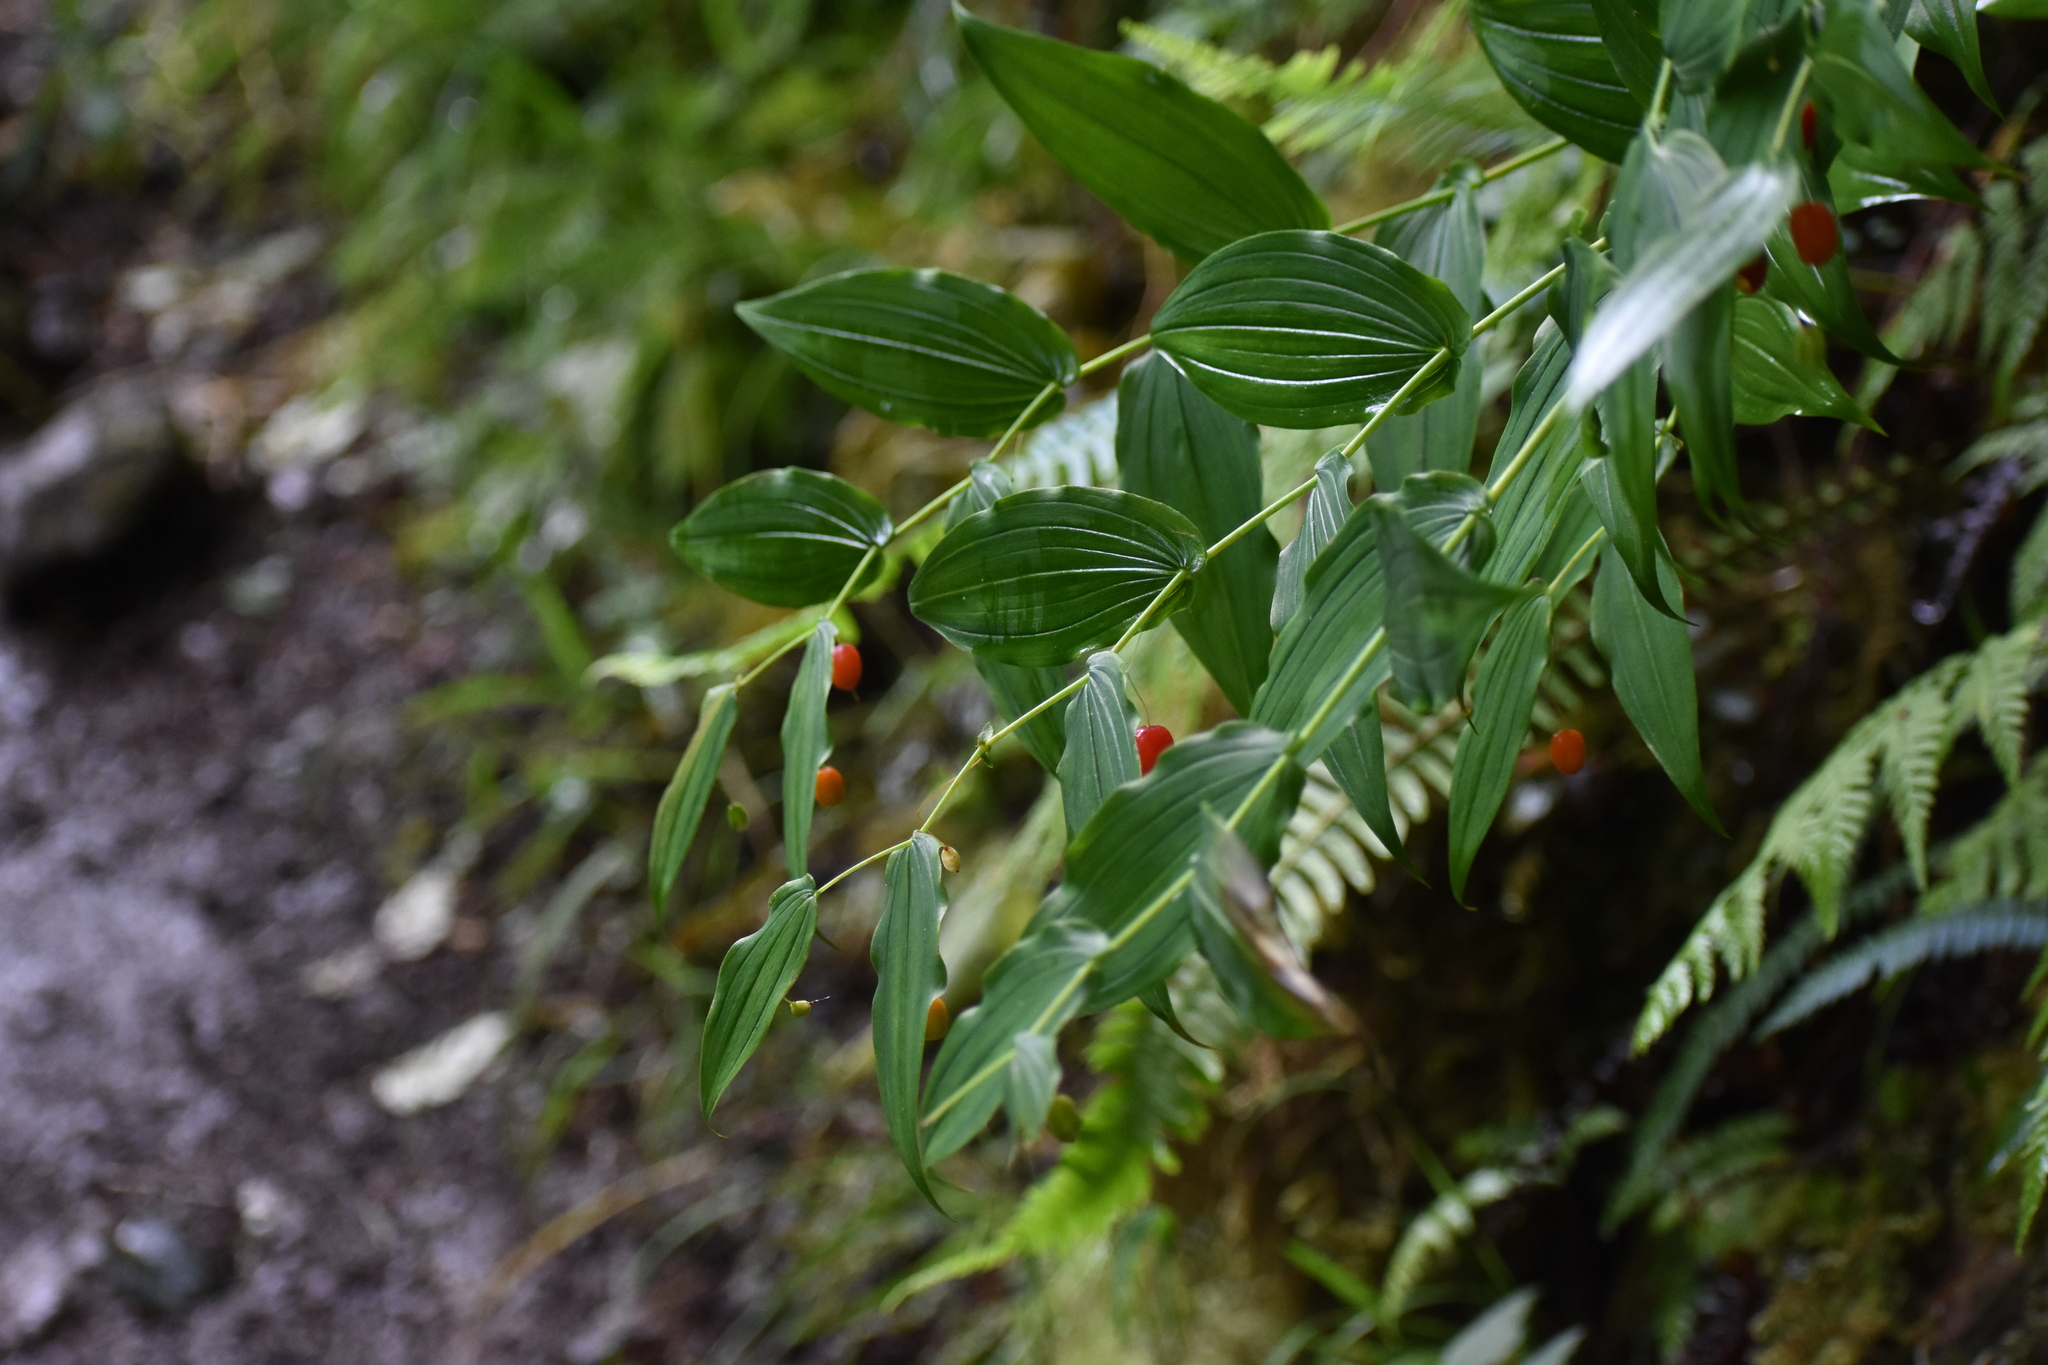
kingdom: Plantae
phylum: Tracheophyta
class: Liliopsida
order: Liliales
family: Liliaceae
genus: Streptopus
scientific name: Streptopus amplexifolius
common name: Clasp twisted stalk
